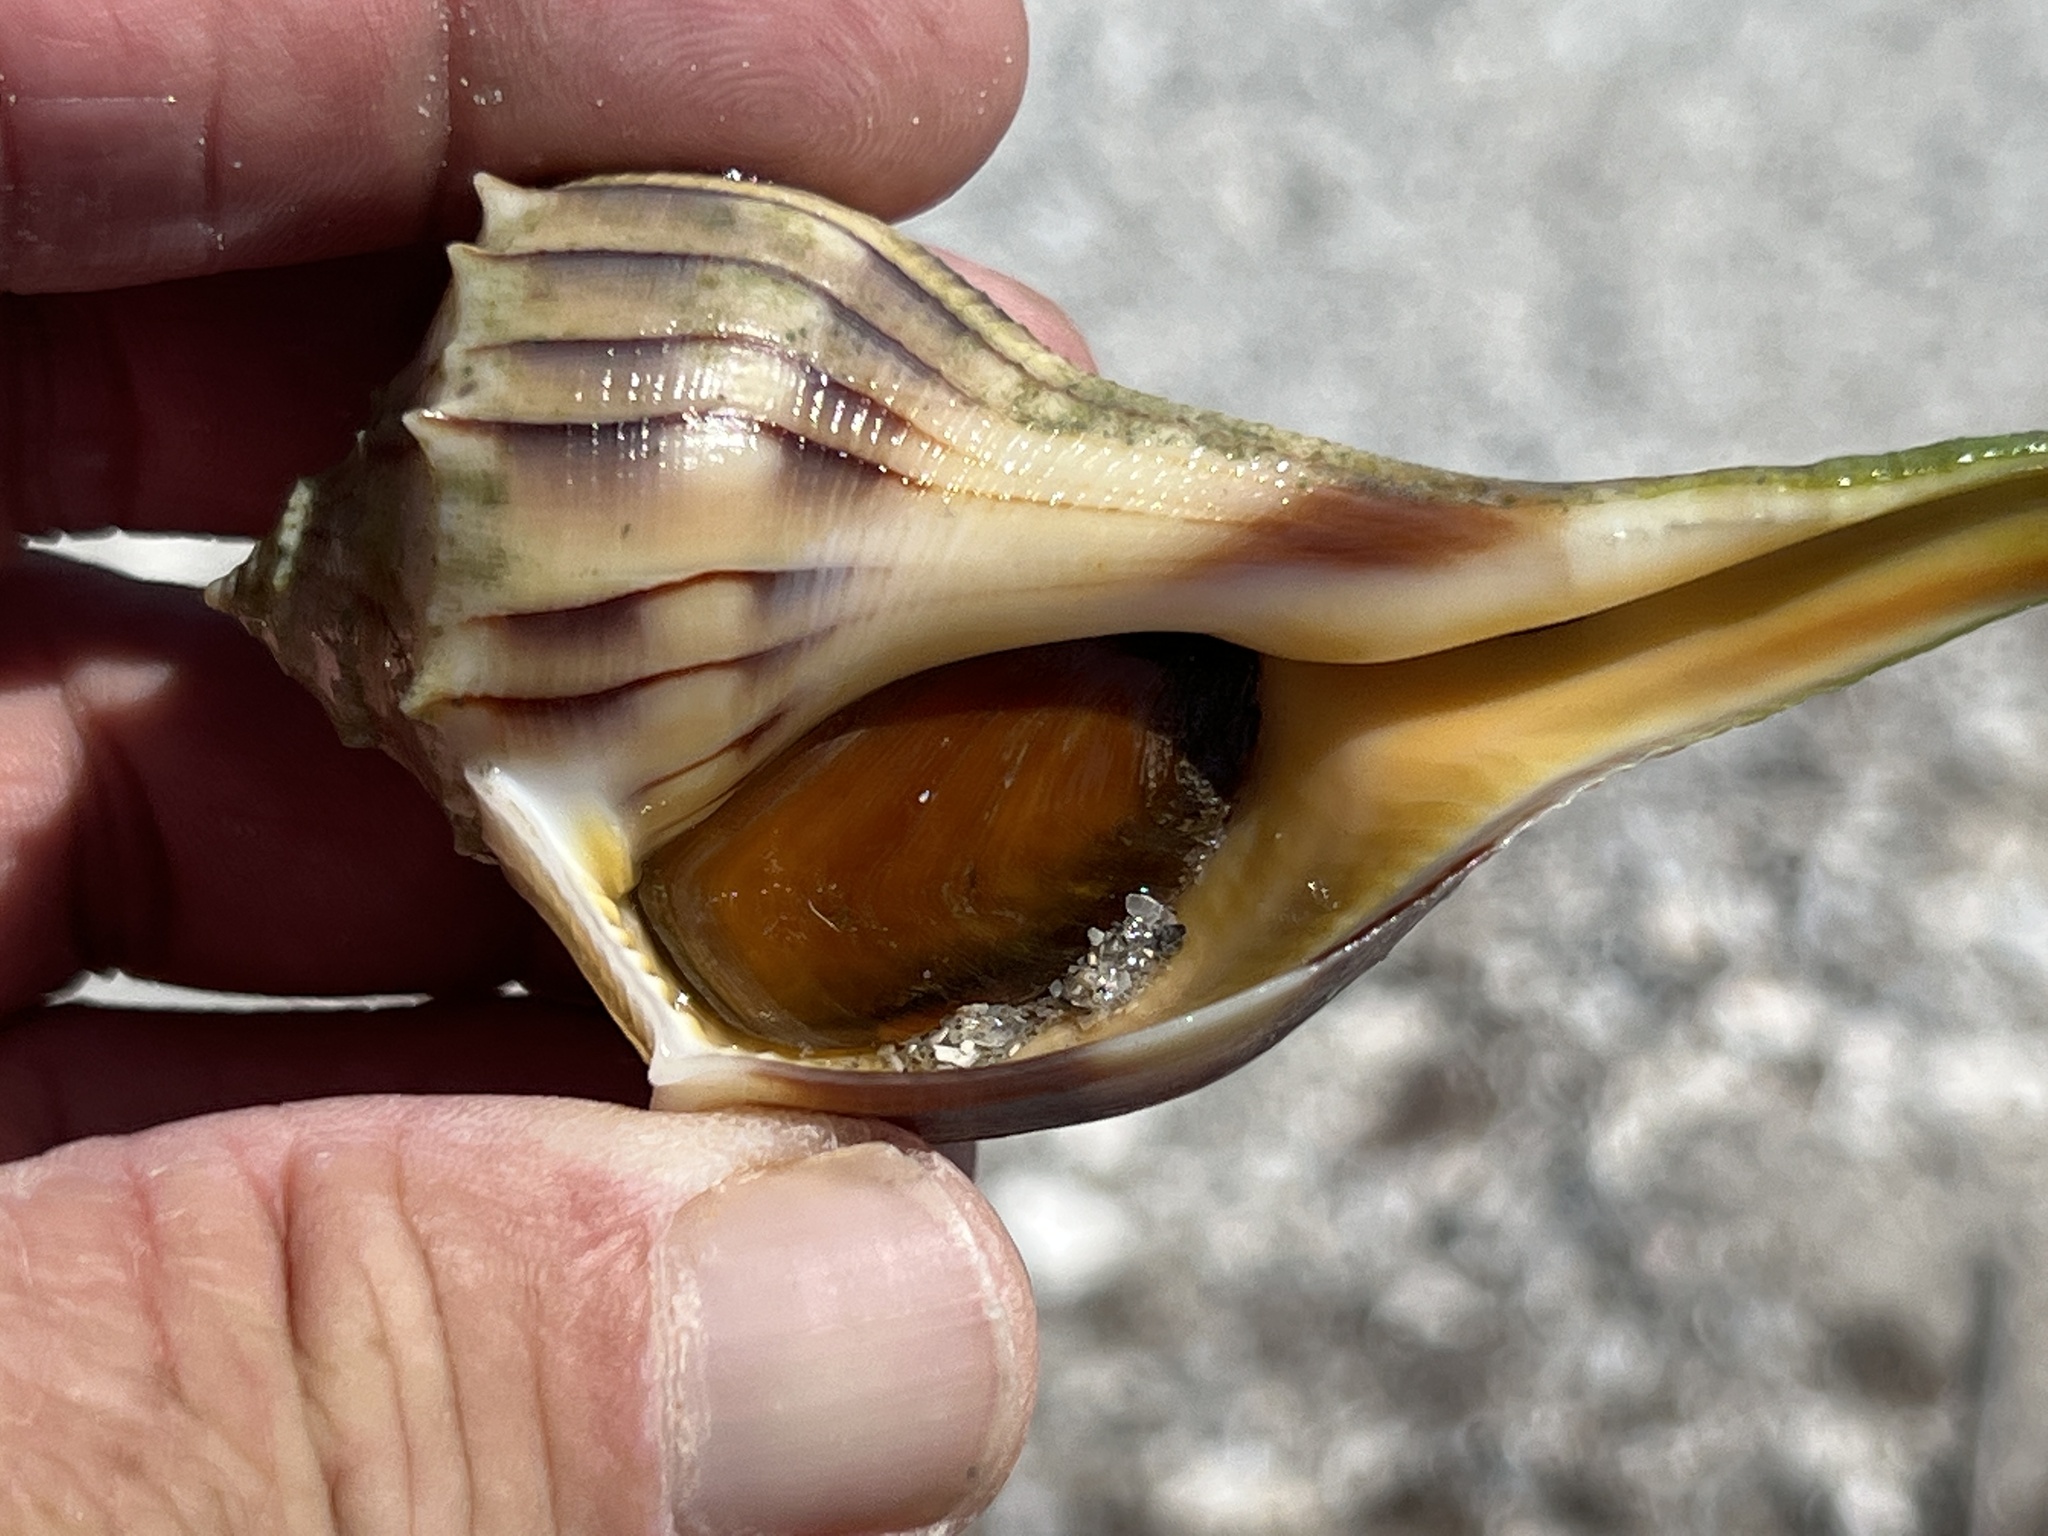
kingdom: Animalia
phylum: Mollusca
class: Gastropoda
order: Neogastropoda
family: Busyconidae
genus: Sinistrofulgur
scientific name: Sinistrofulgur pulleyi
